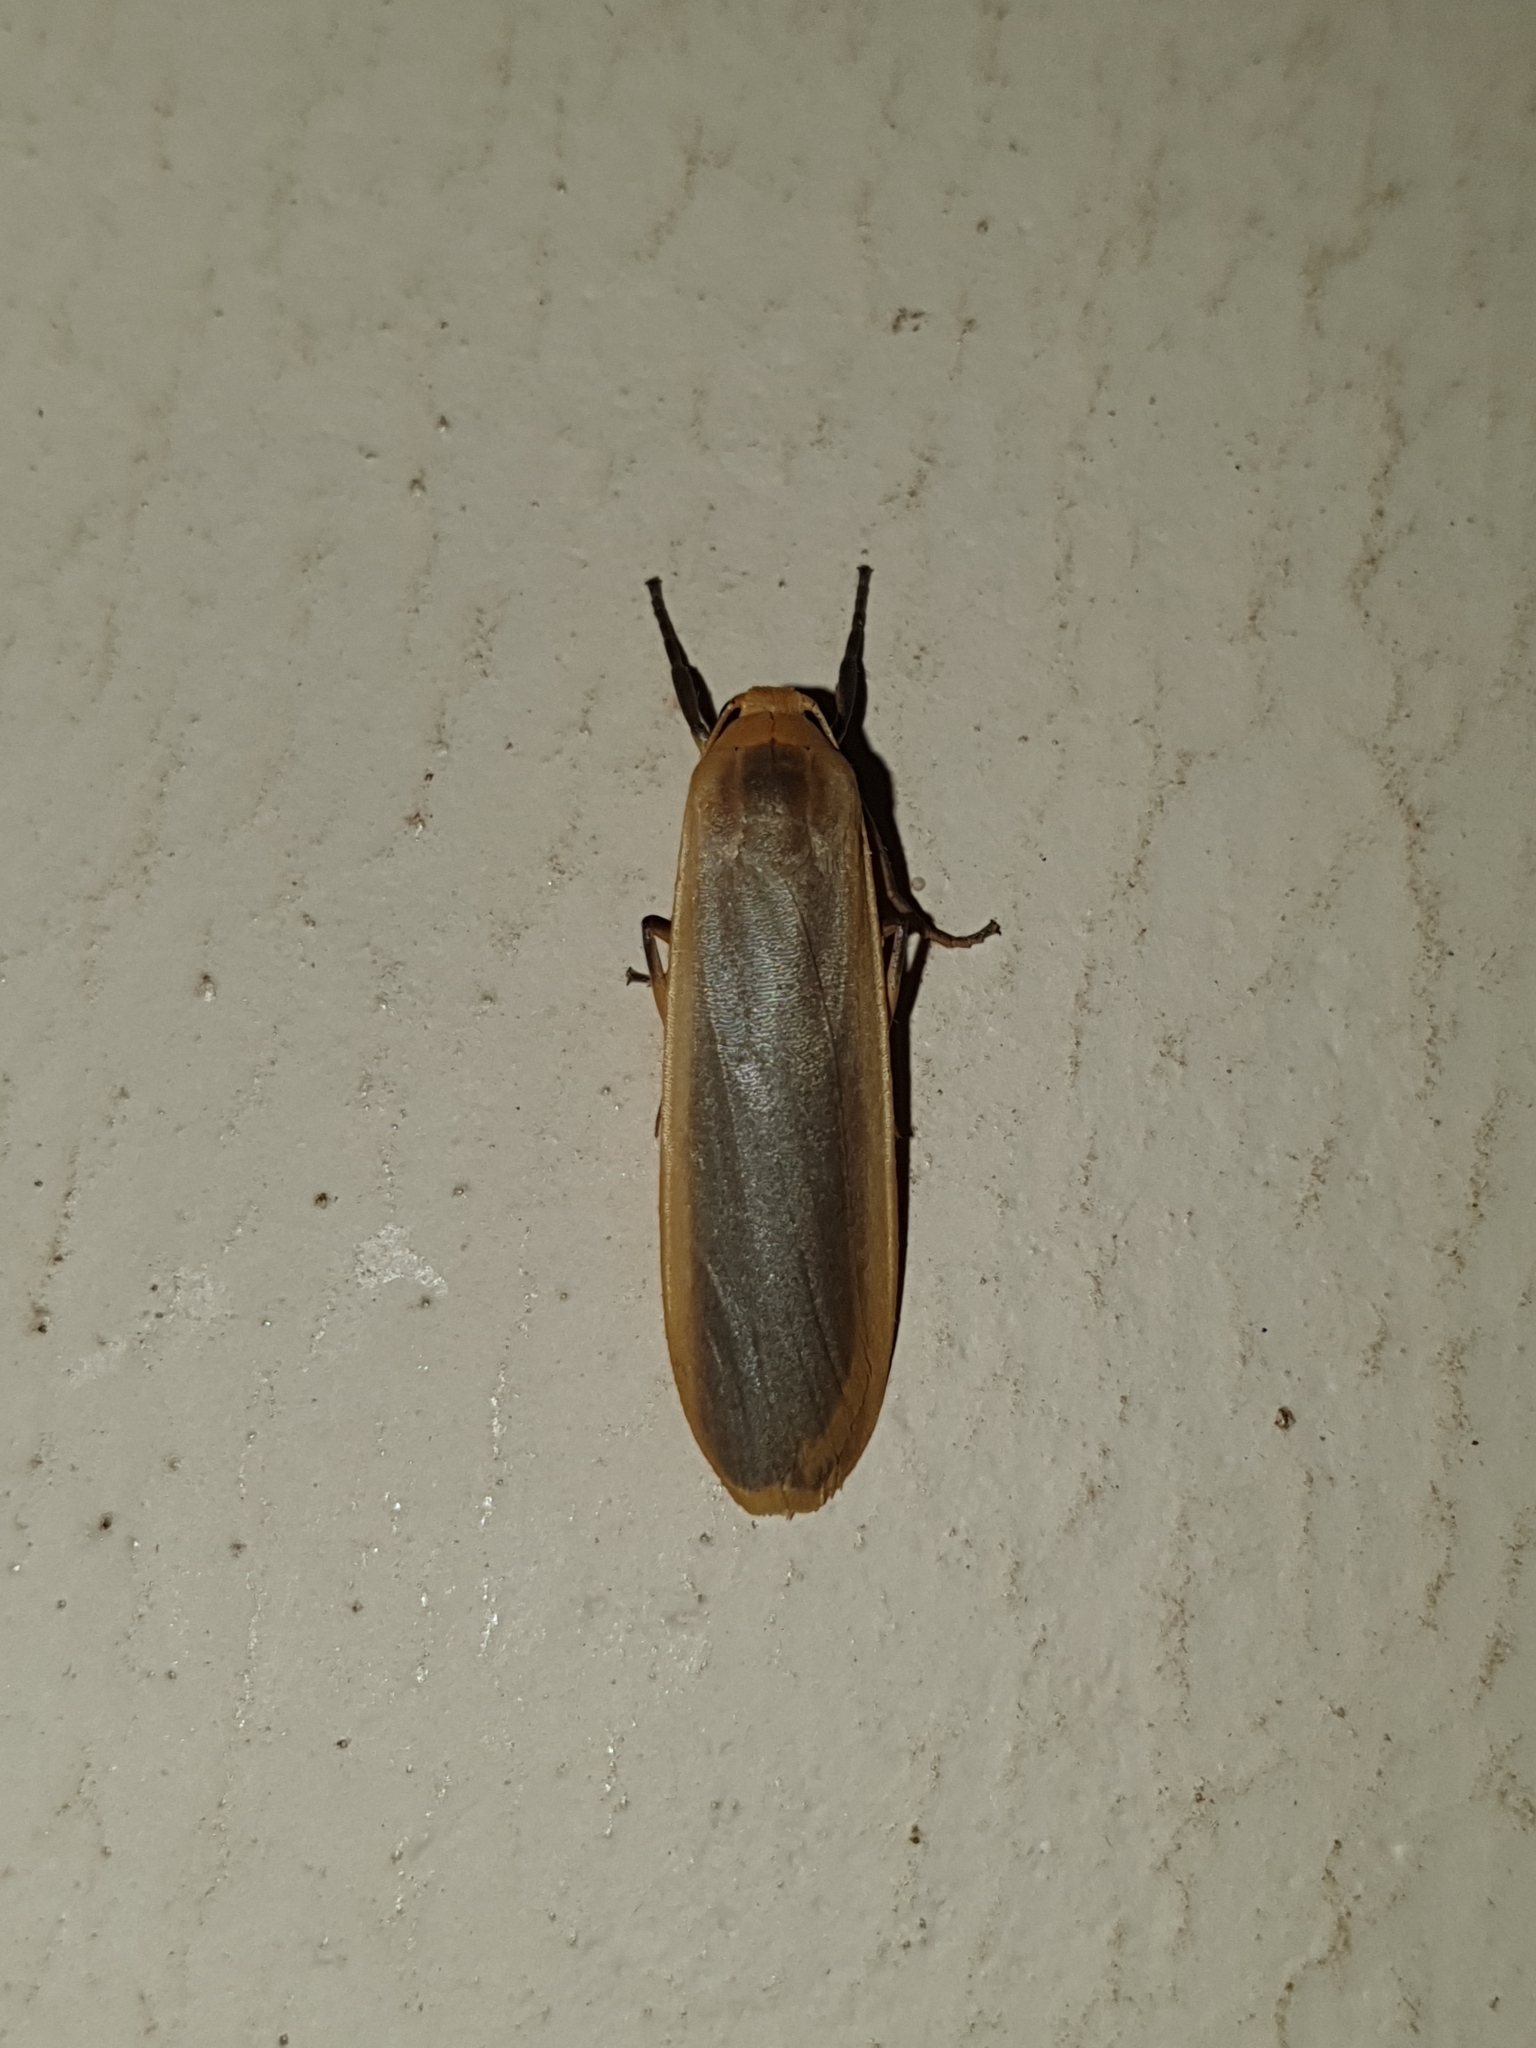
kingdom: Animalia
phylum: Arthropoda
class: Insecta
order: Lepidoptera
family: Erebidae
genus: Brunia
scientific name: Brunia antica
